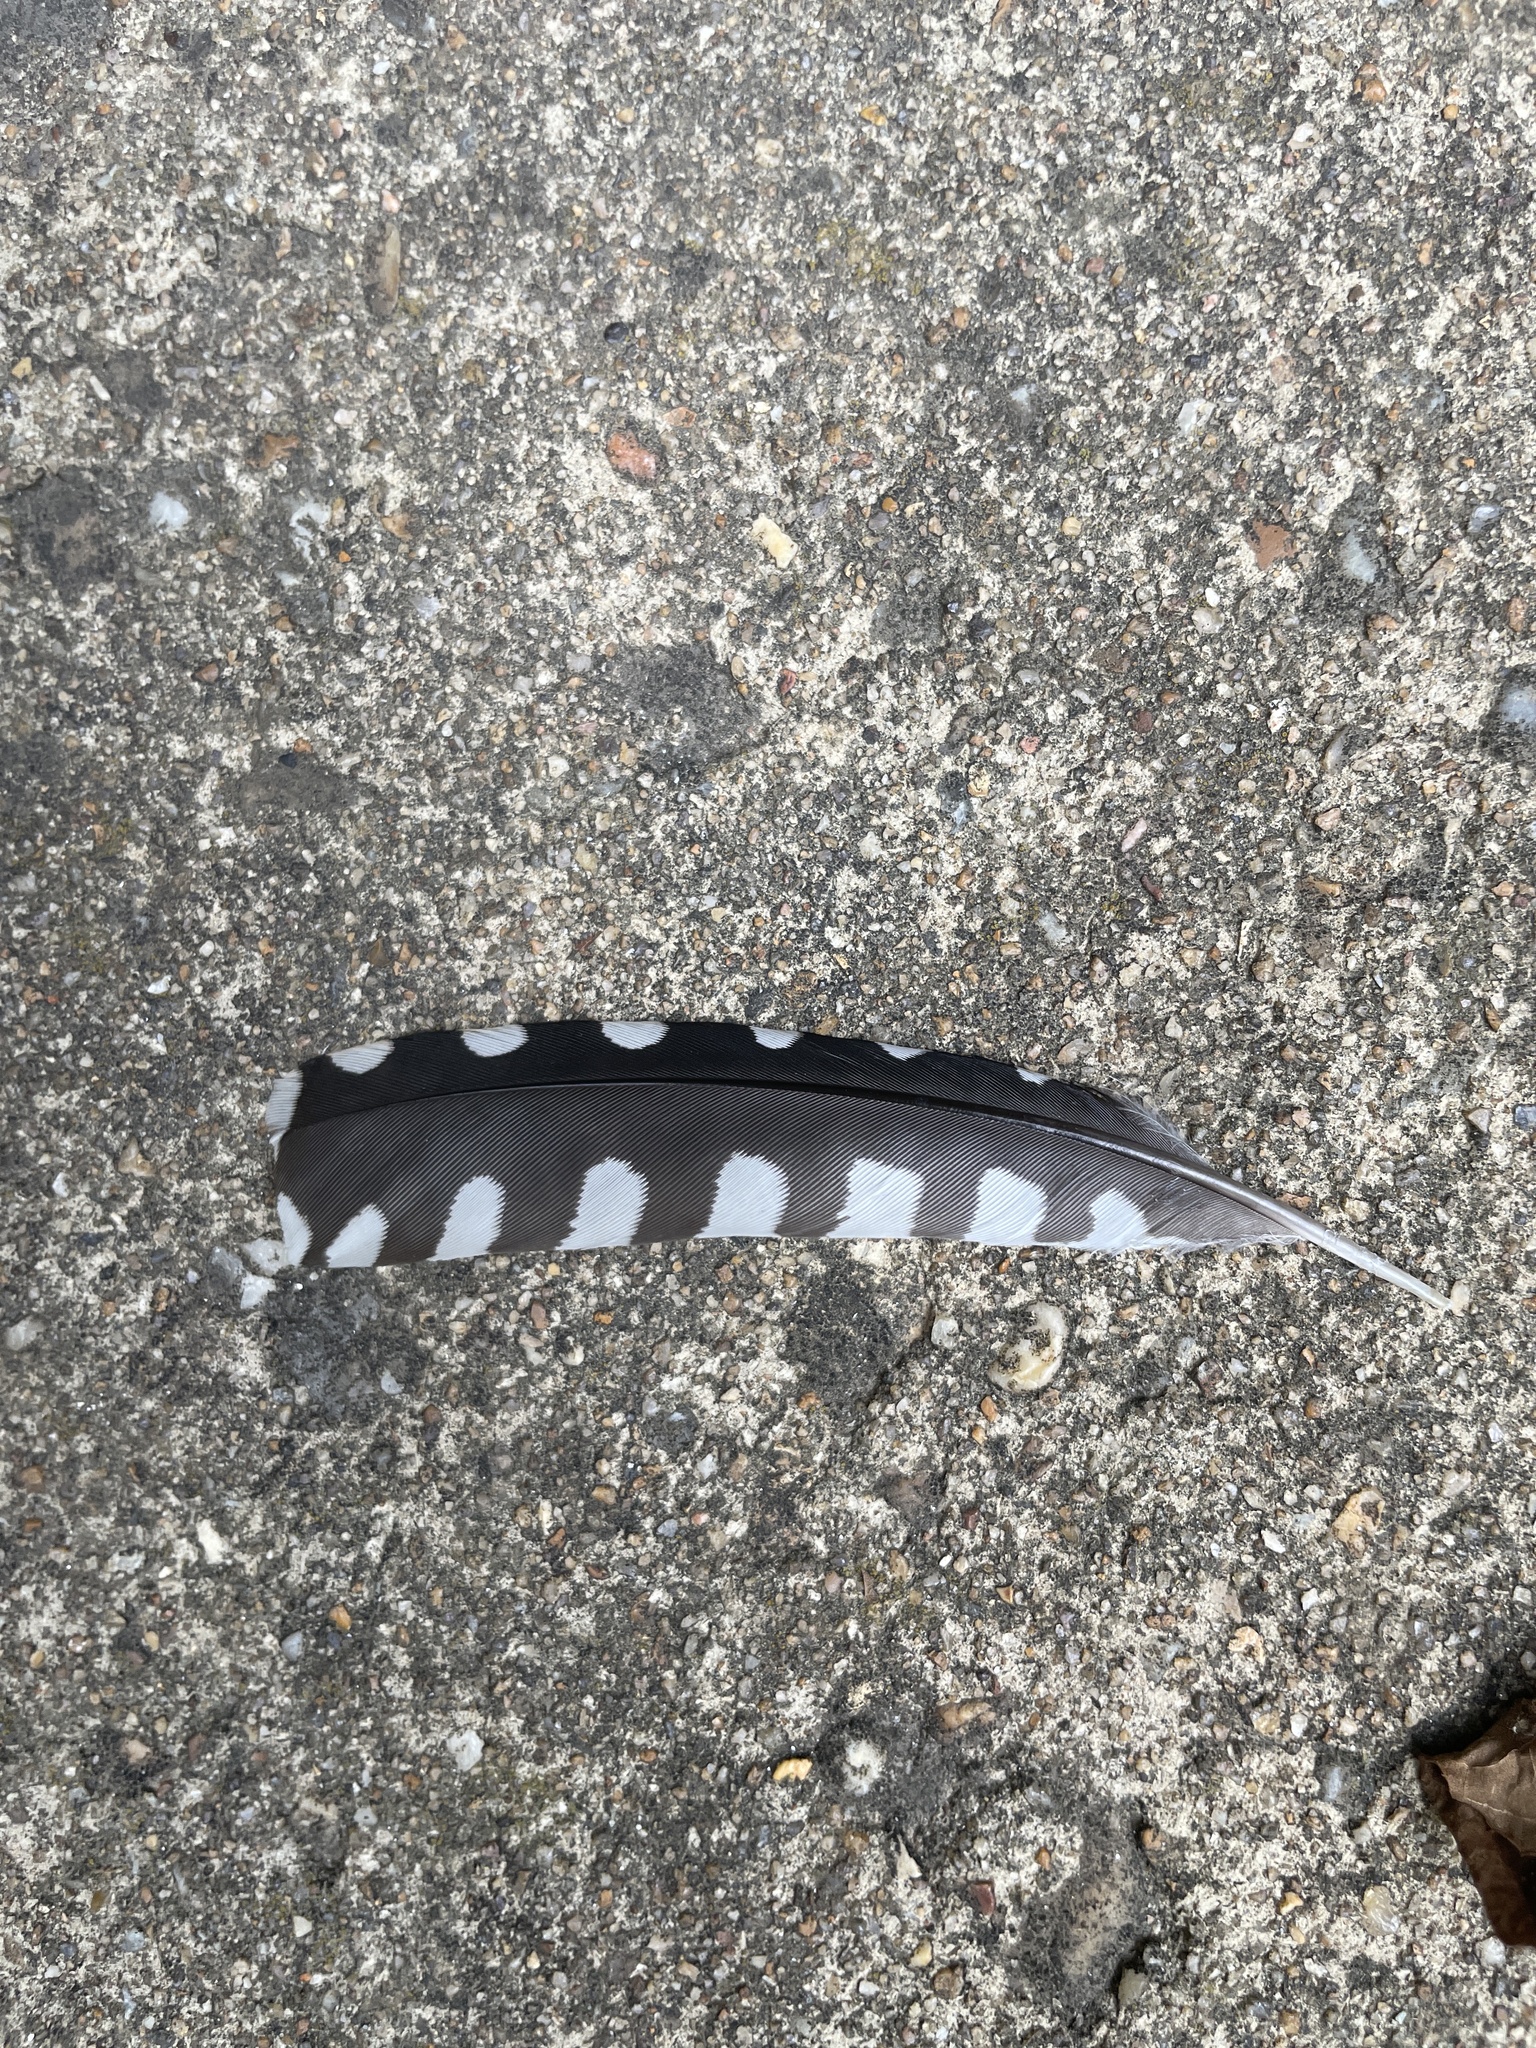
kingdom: Animalia
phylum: Chordata
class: Aves
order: Piciformes
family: Picidae
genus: Melanerpes
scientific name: Melanerpes carolinus
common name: Red-bellied woodpecker
